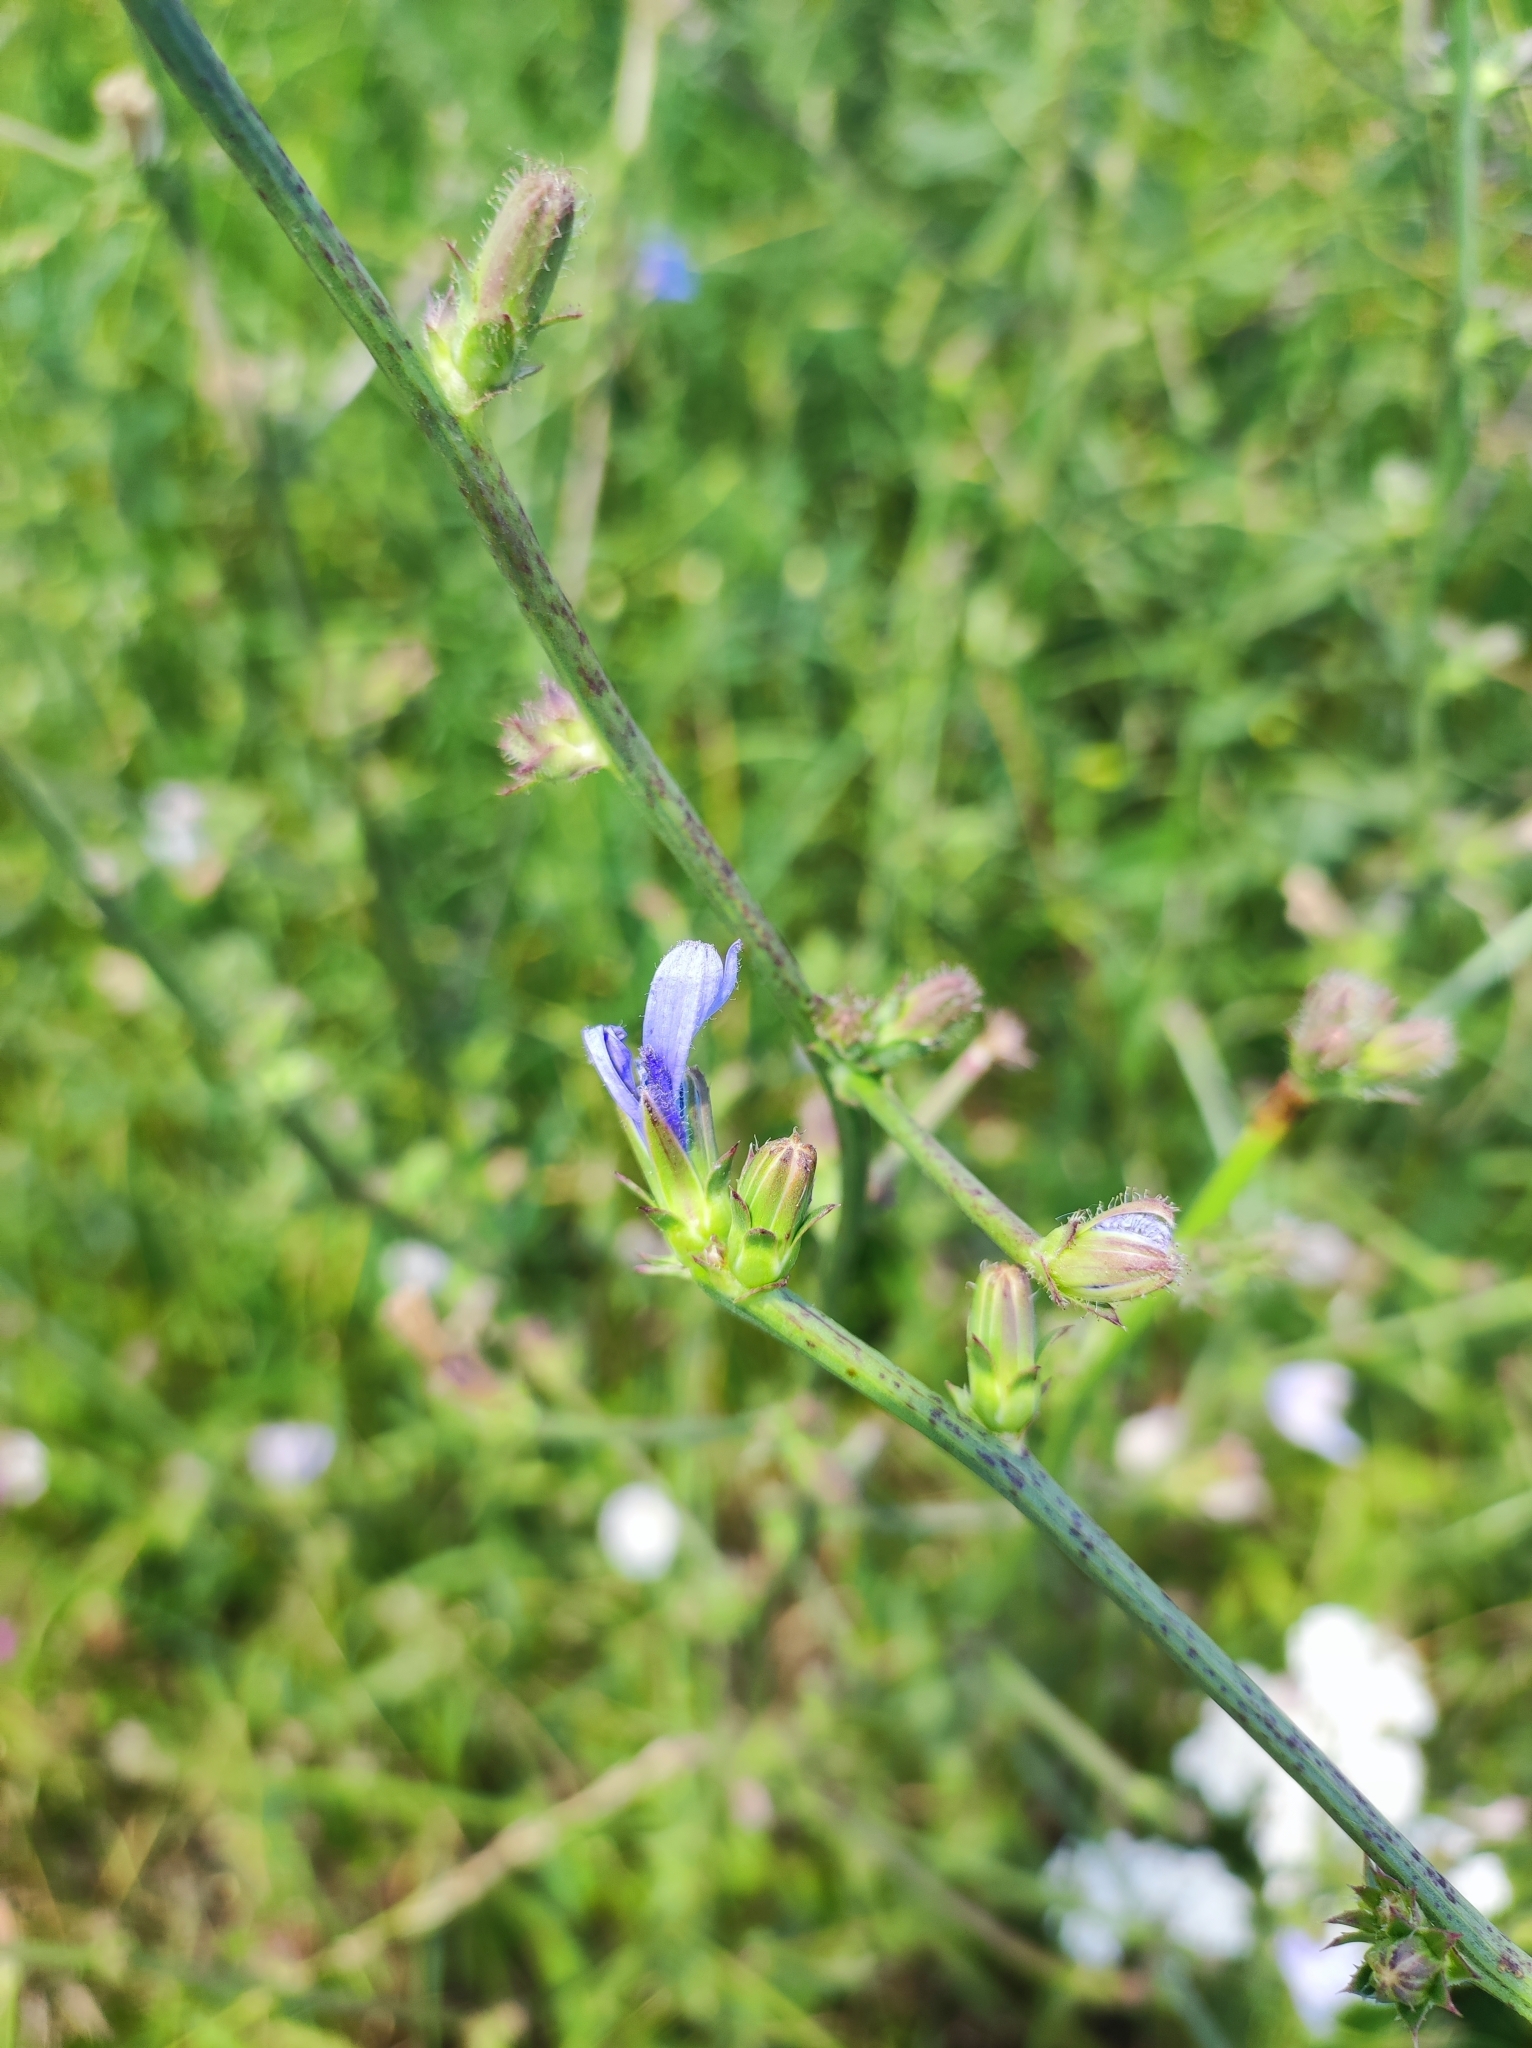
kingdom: Plantae
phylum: Tracheophyta
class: Magnoliopsida
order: Asterales
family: Asteraceae
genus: Cichorium
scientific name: Cichorium intybus
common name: Chicory
